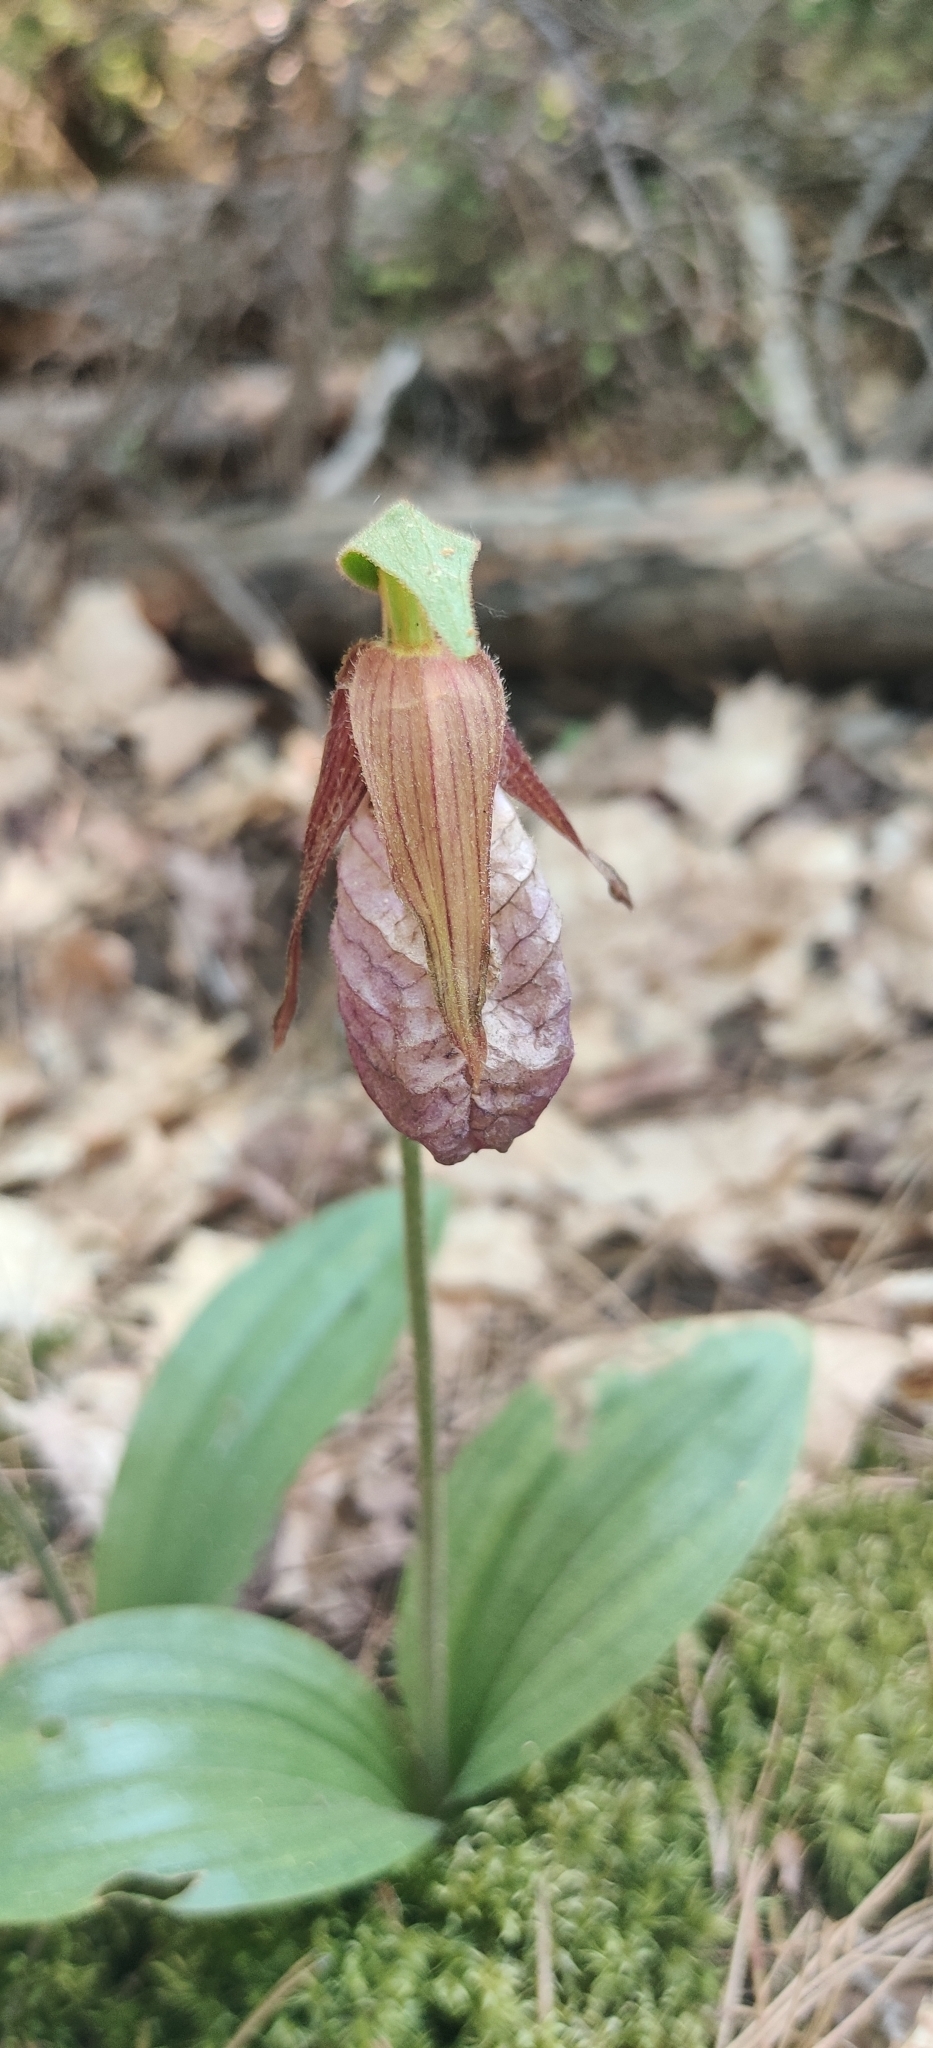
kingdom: Plantae
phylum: Tracheophyta
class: Liliopsida
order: Asparagales
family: Orchidaceae
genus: Cypripedium
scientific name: Cypripedium acaule
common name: Pink lady's-slipper
